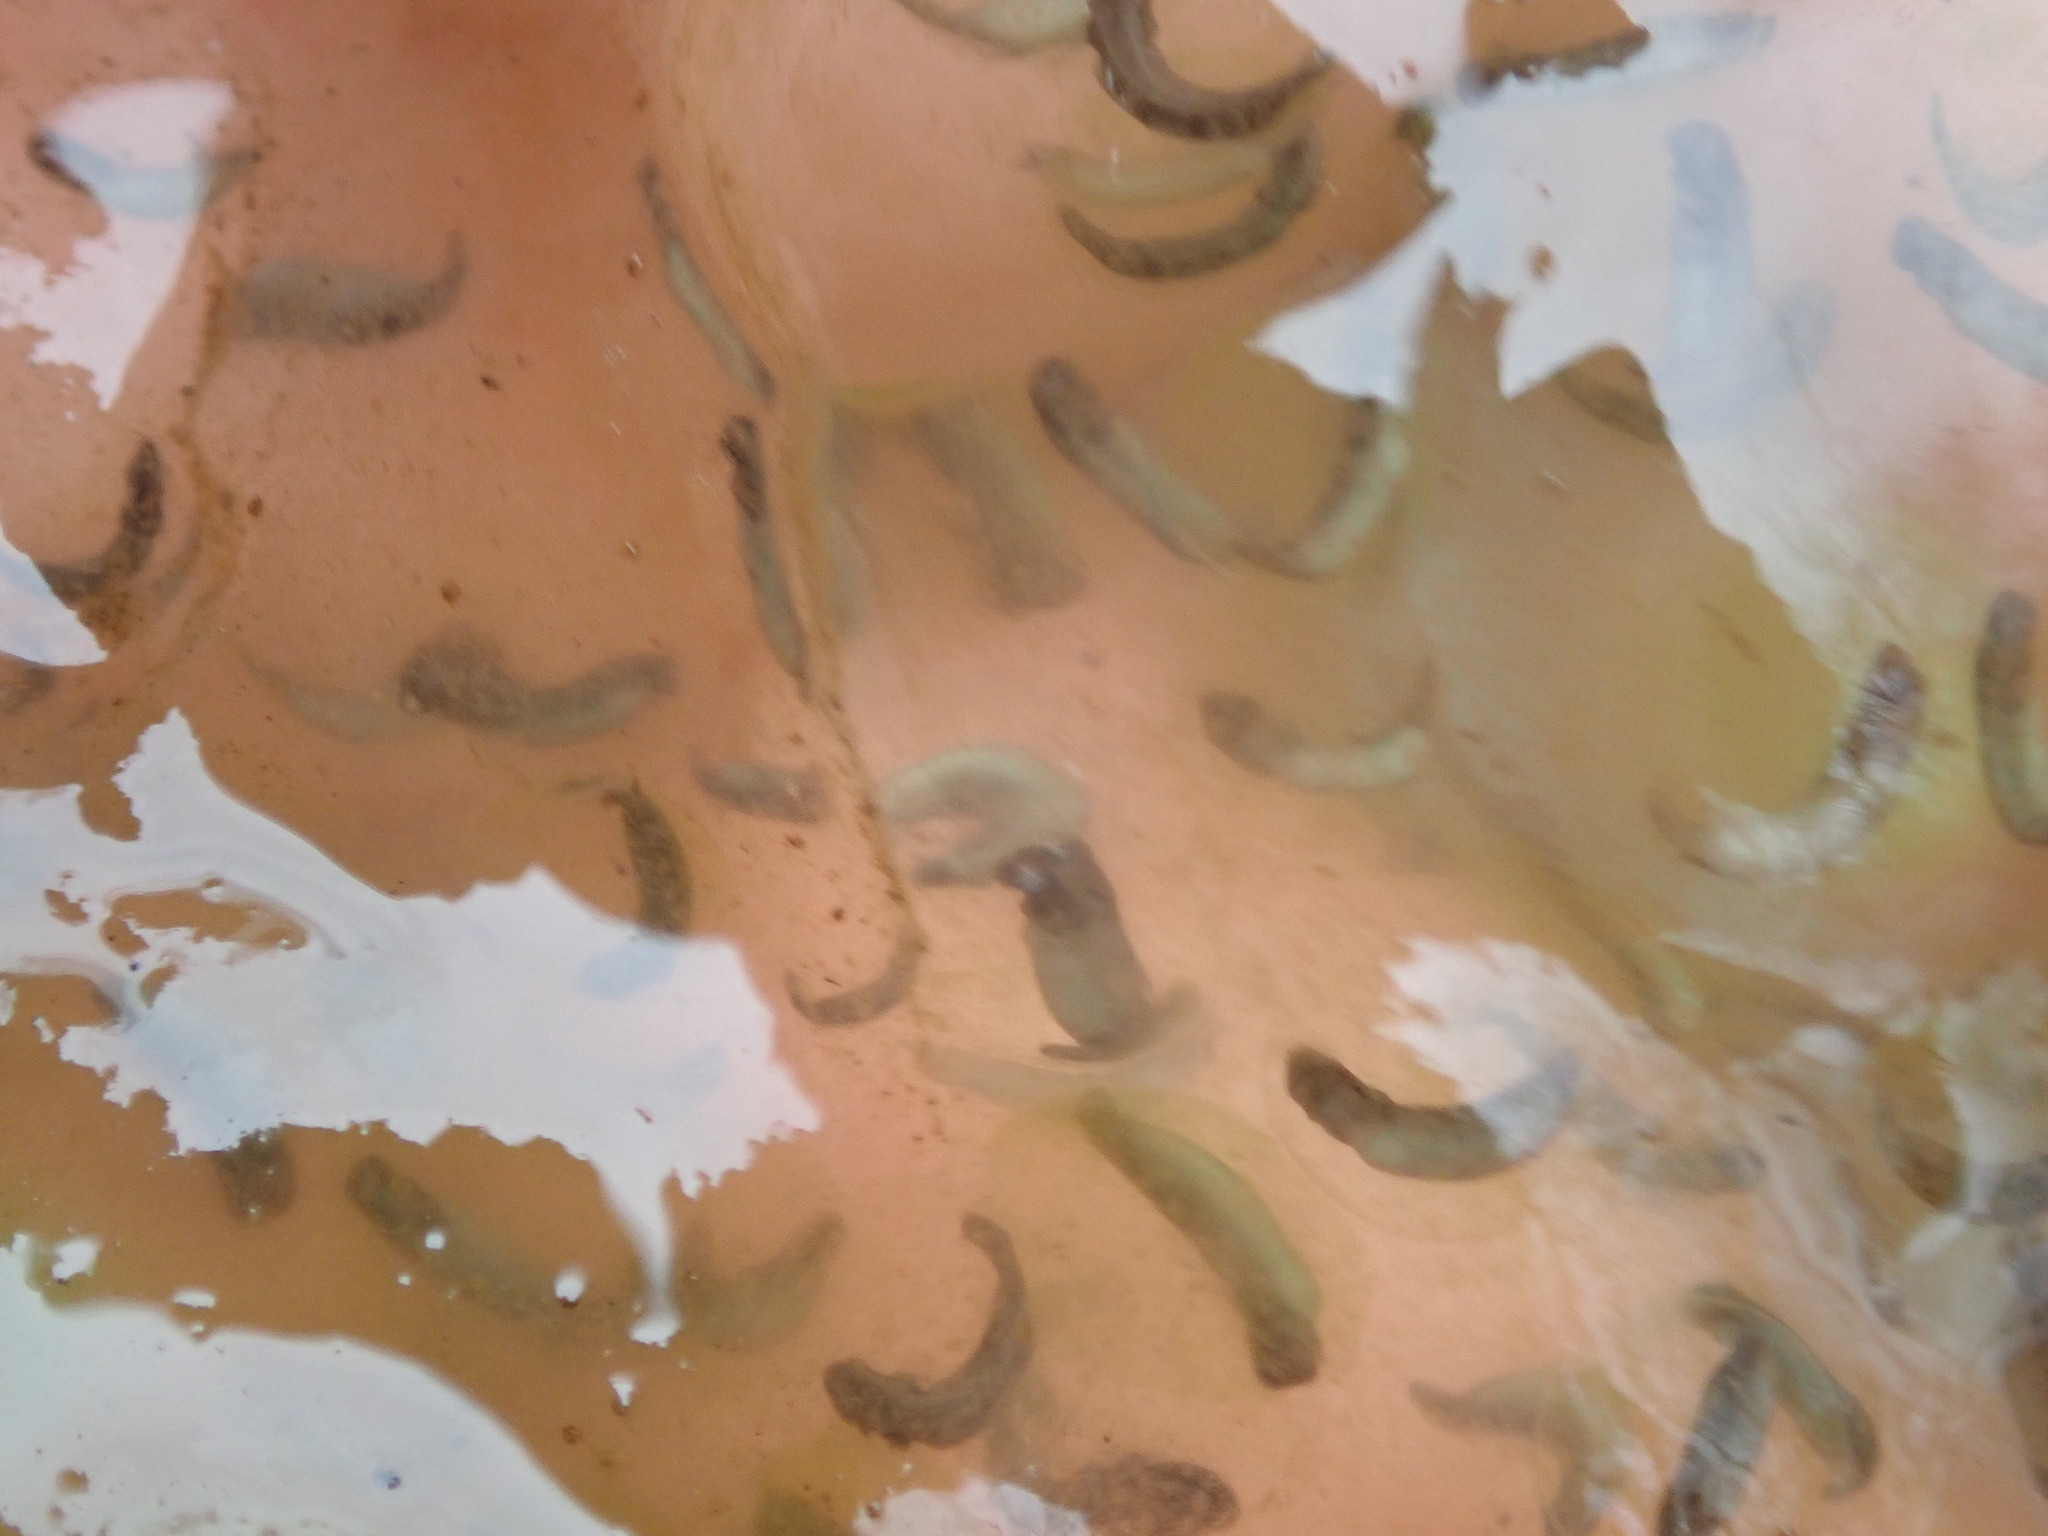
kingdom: Animalia
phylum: Chordata
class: Amphibia
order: Caudata
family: Ambystomatidae
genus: Ambystoma
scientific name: Ambystoma maculatum
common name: Spotted salamander
